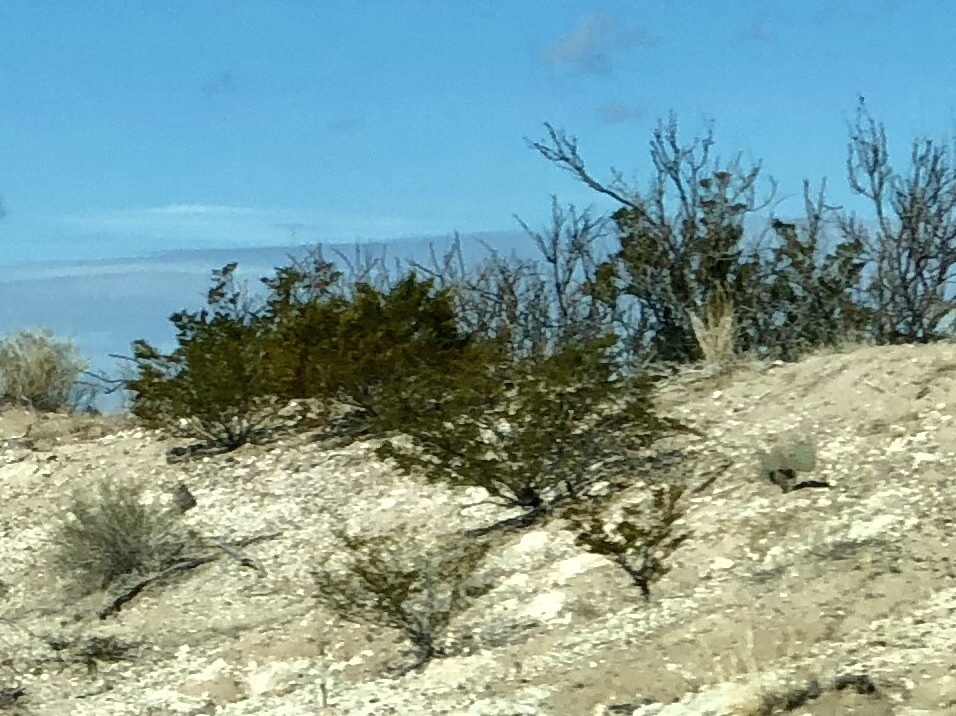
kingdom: Plantae
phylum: Tracheophyta
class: Magnoliopsida
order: Zygophyllales
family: Zygophyllaceae
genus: Larrea
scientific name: Larrea tridentata
